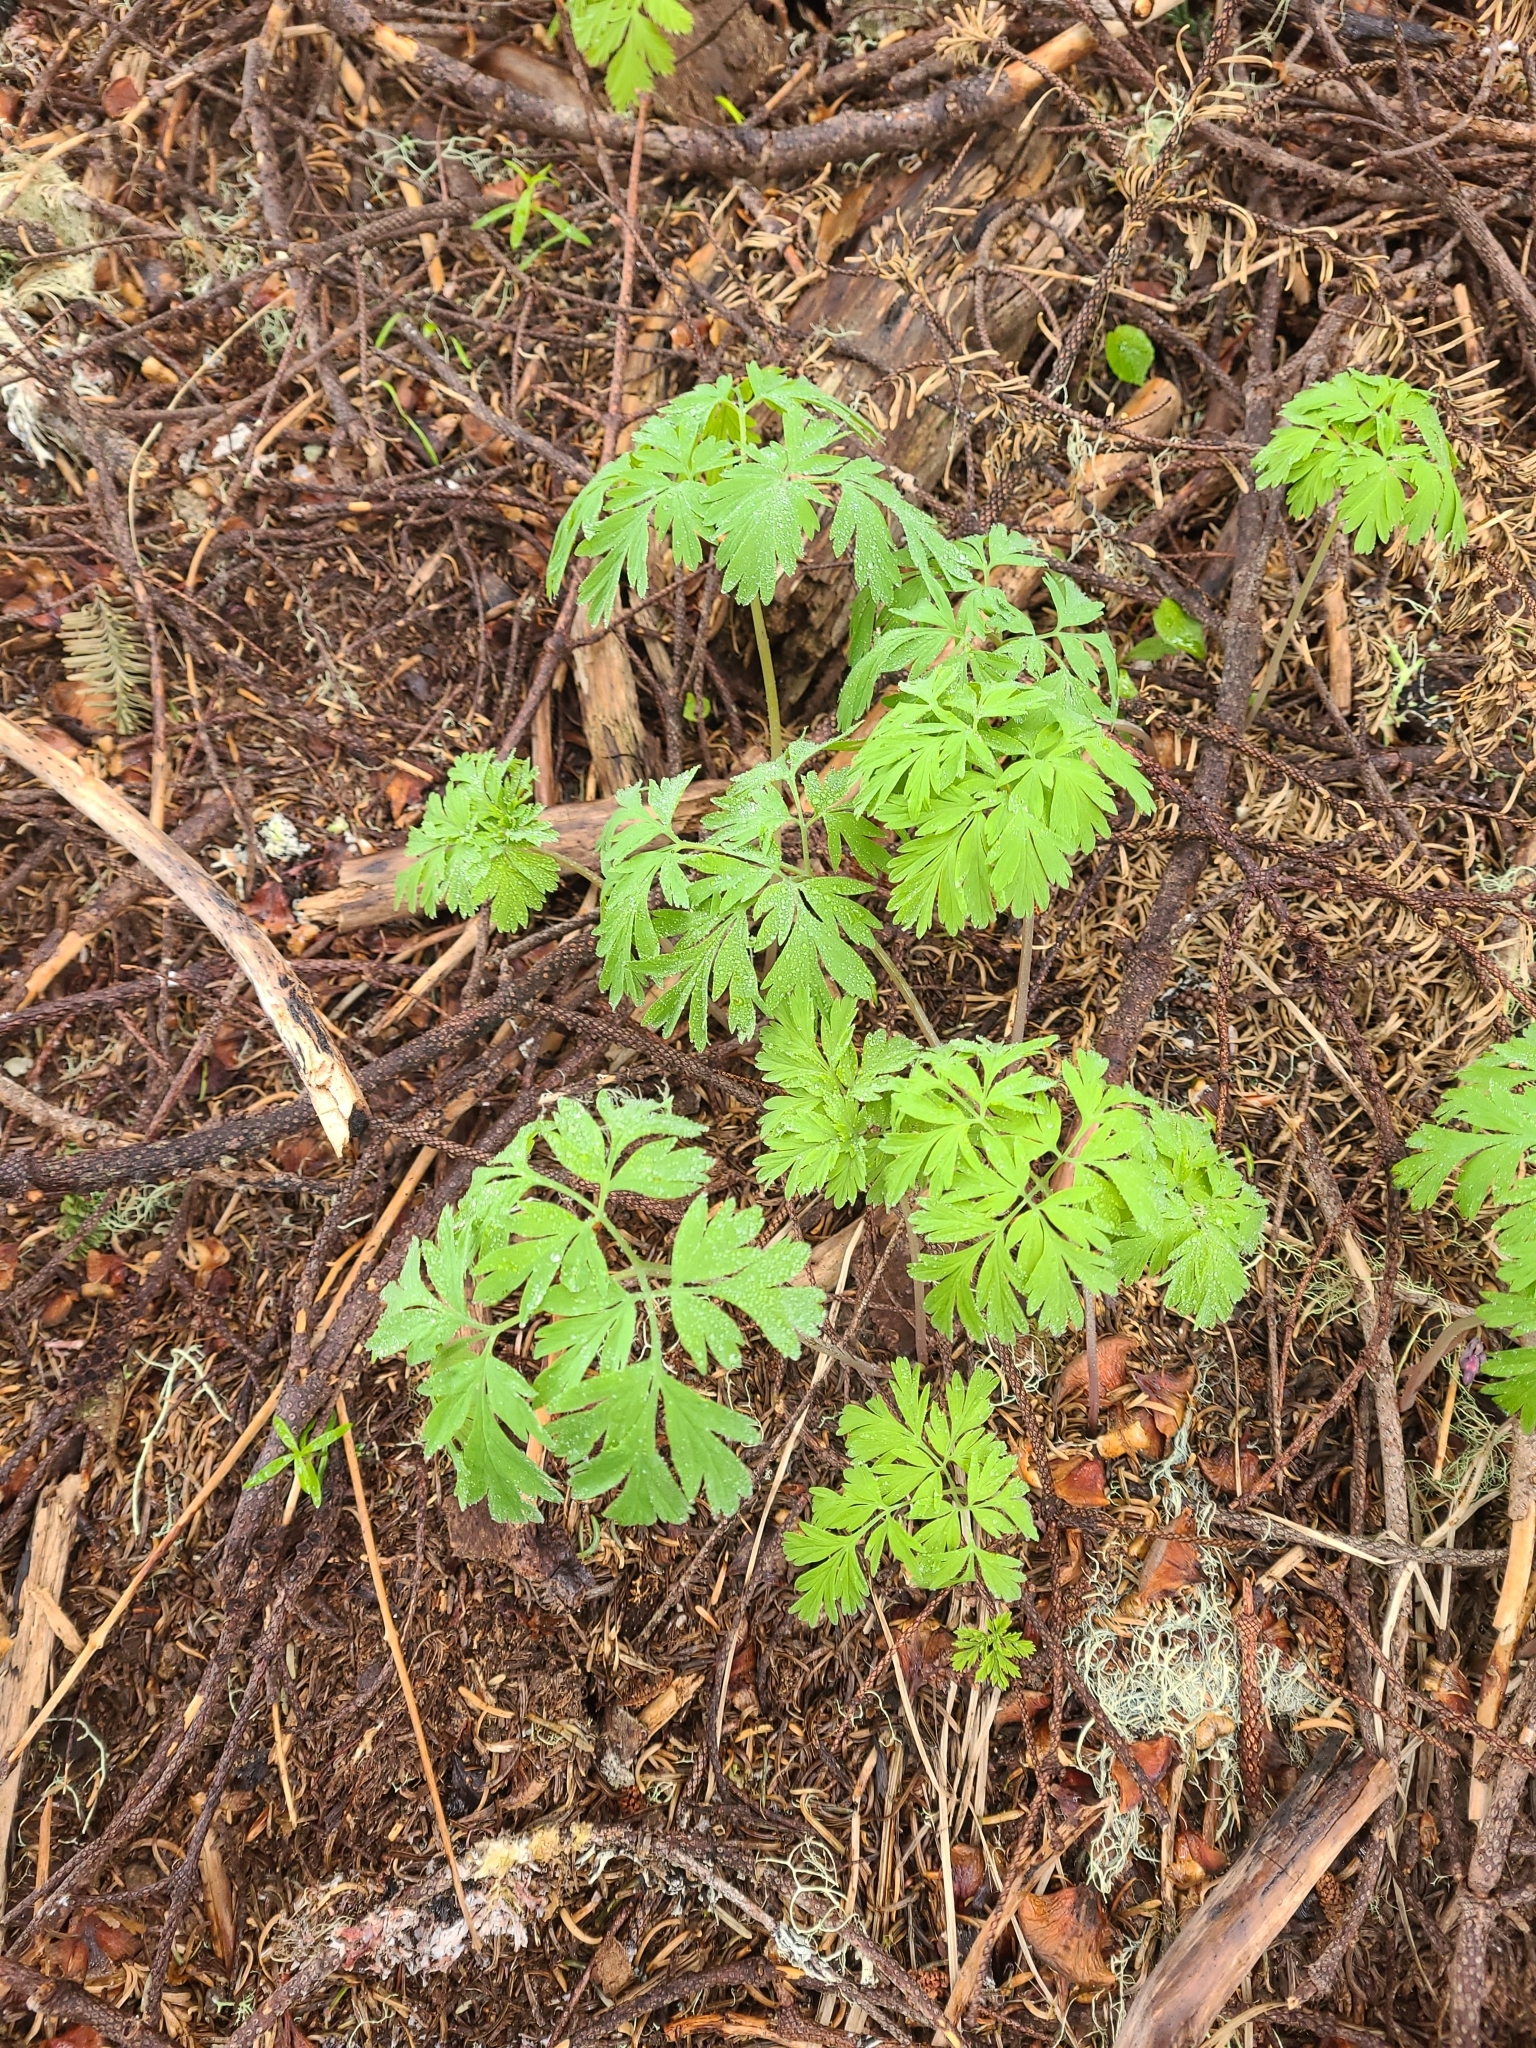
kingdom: Plantae
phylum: Tracheophyta
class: Magnoliopsida
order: Ranunculales
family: Papaveraceae
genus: Dicentra
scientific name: Dicentra formosa
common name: Bleeding-heart
